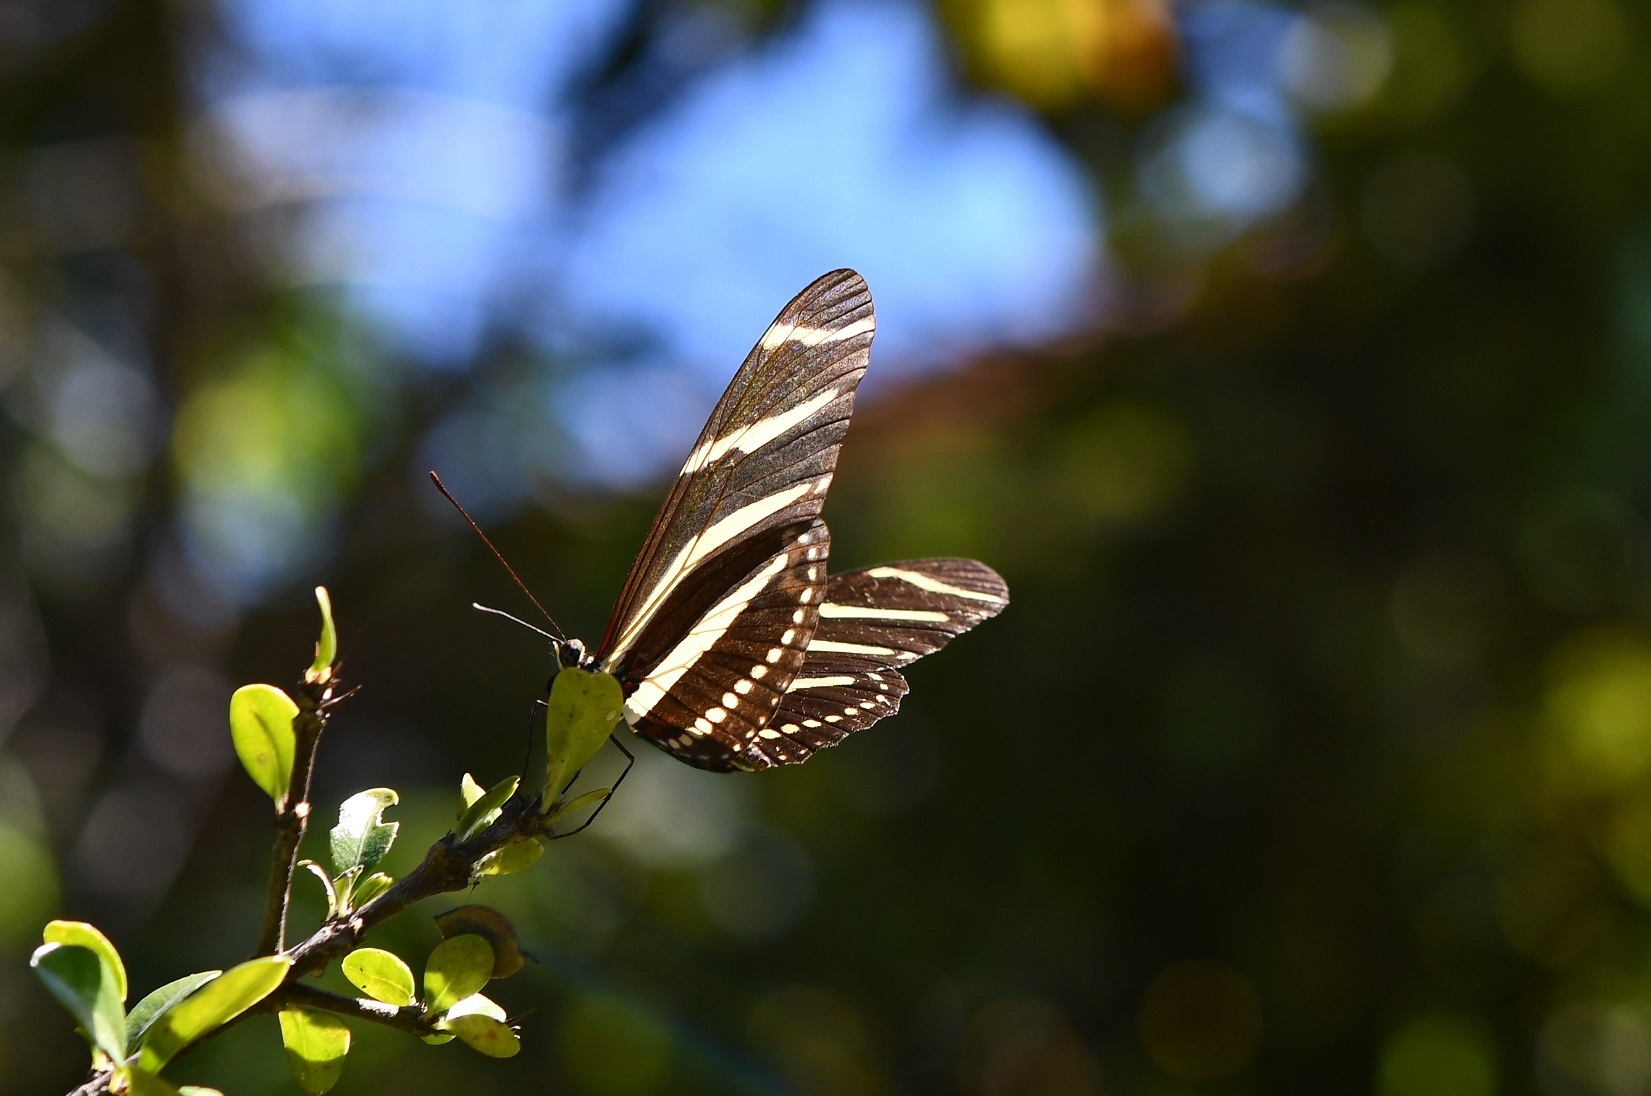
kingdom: Animalia
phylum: Arthropoda
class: Insecta
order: Lepidoptera
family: Nymphalidae
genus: Heliconius
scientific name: Heliconius charithonia
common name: Zebra long wing
